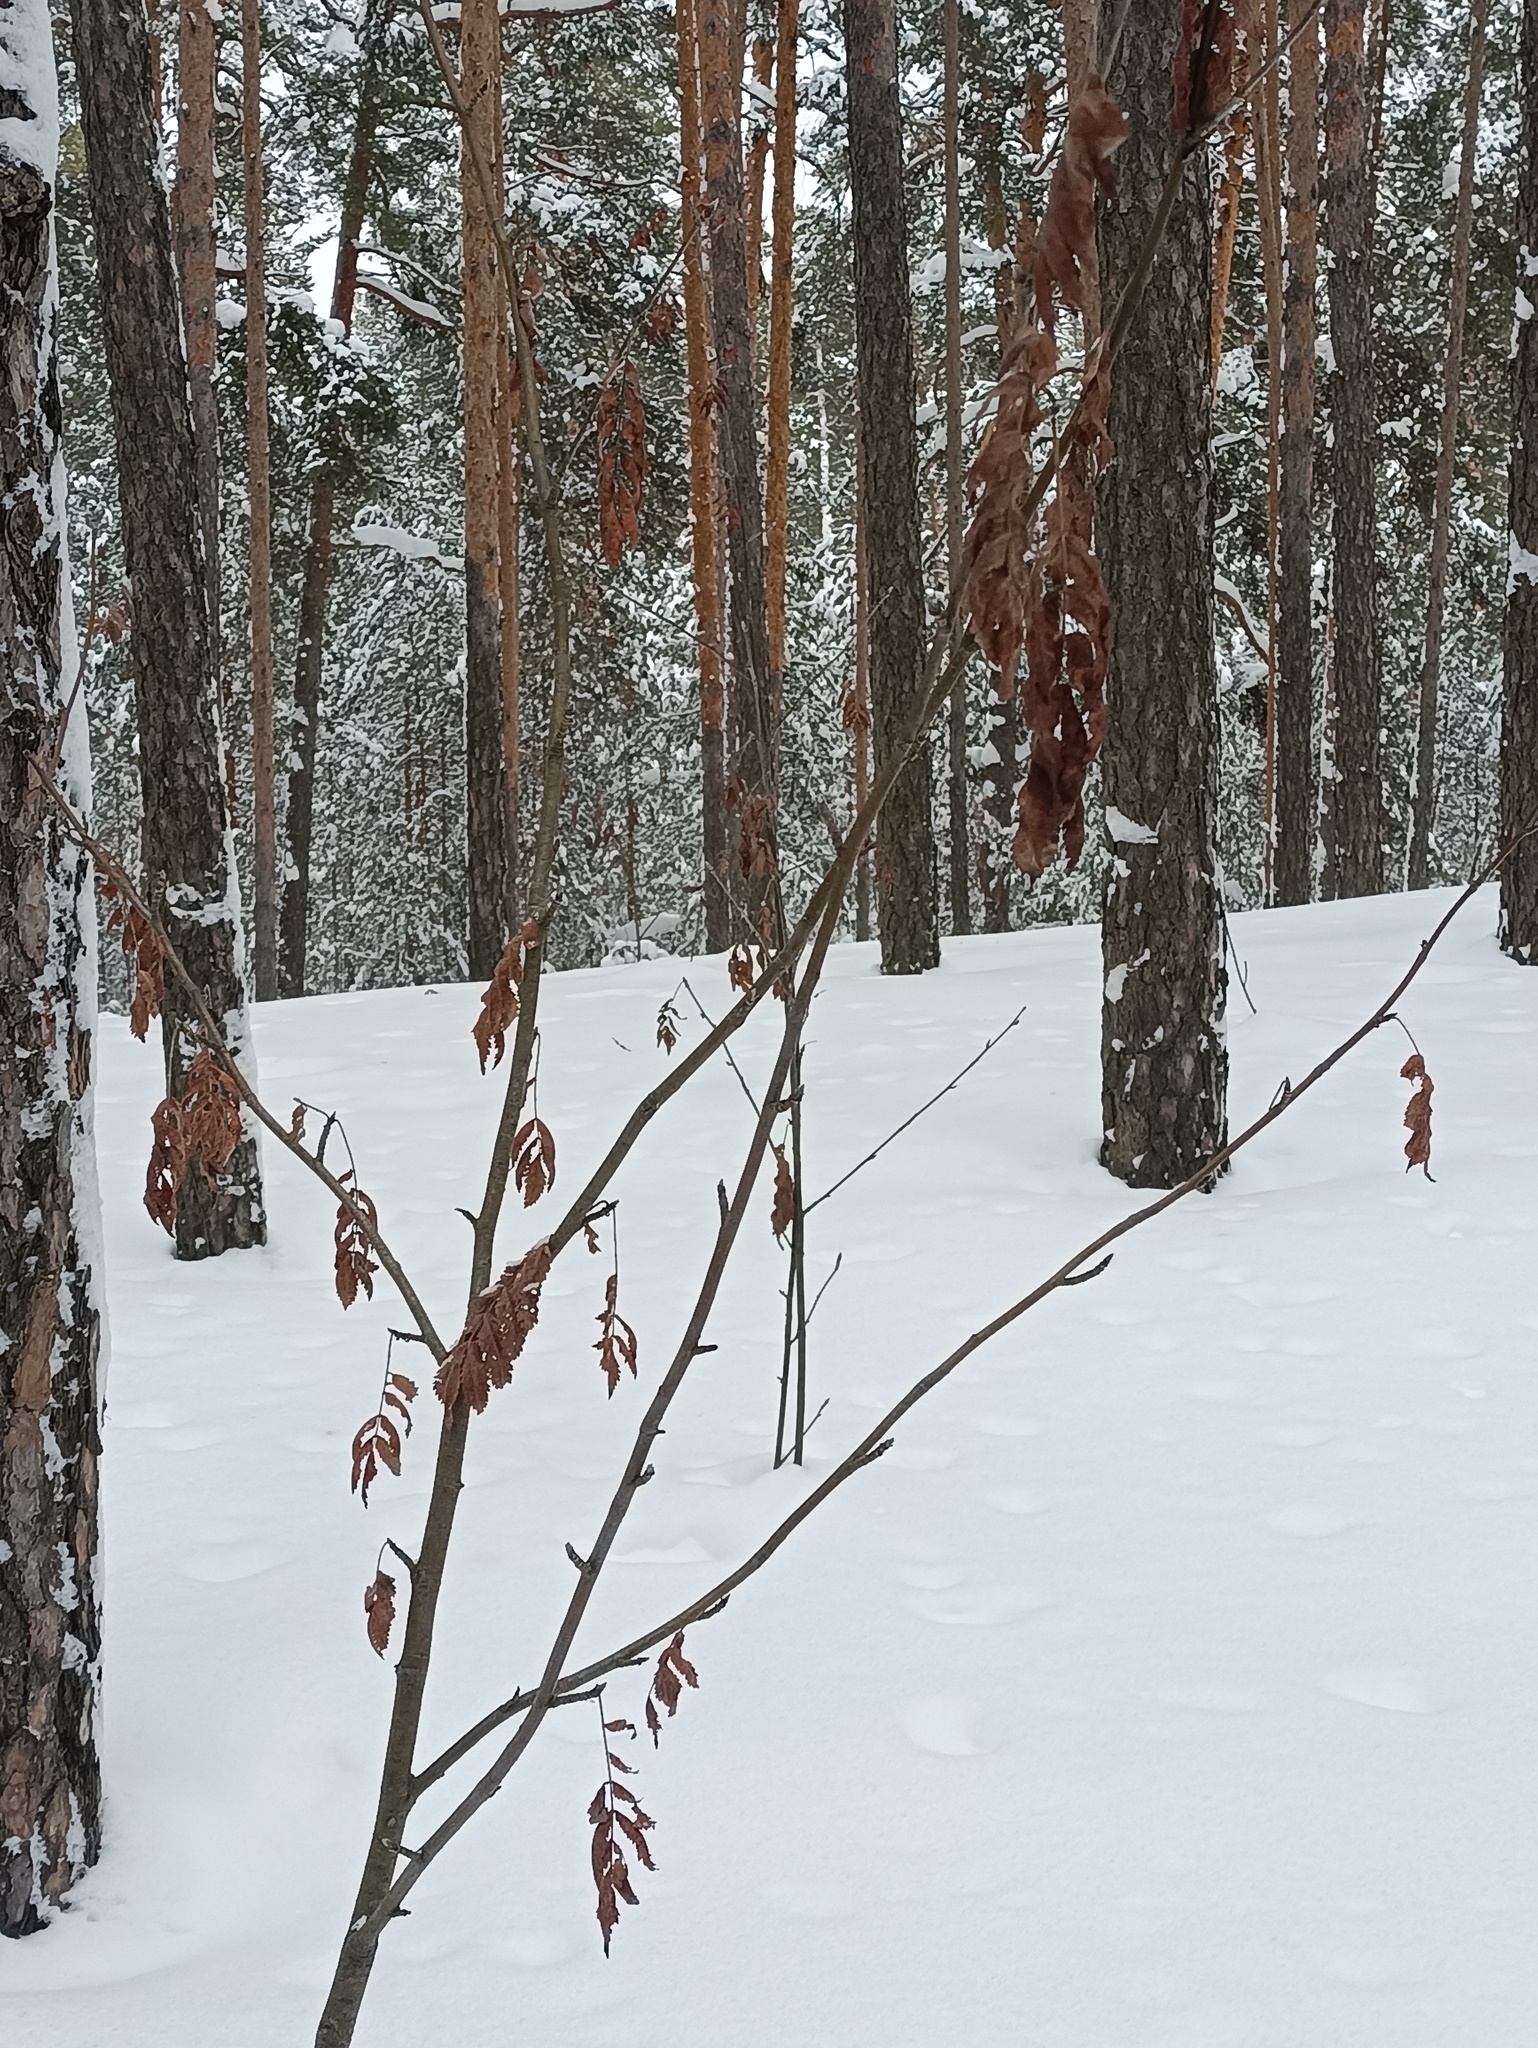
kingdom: Plantae
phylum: Tracheophyta
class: Magnoliopsida
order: Rosales
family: Rosaceae
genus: Sorbus
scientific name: Sorbus aucuparia
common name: Rowan
